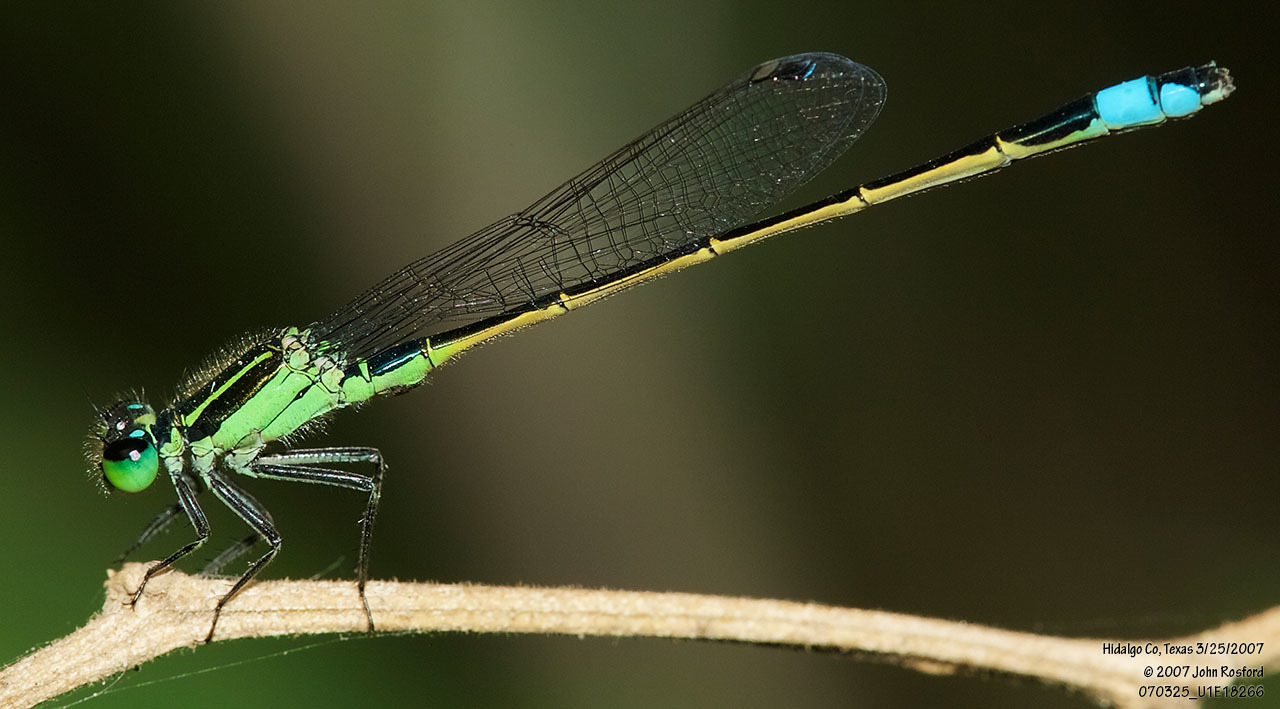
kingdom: Animalia
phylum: Arthropoda
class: Insecta
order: Odonata
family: Coenagrionidae
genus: Ischnura
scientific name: Ischnura ramburii
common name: Rambur's forktail
